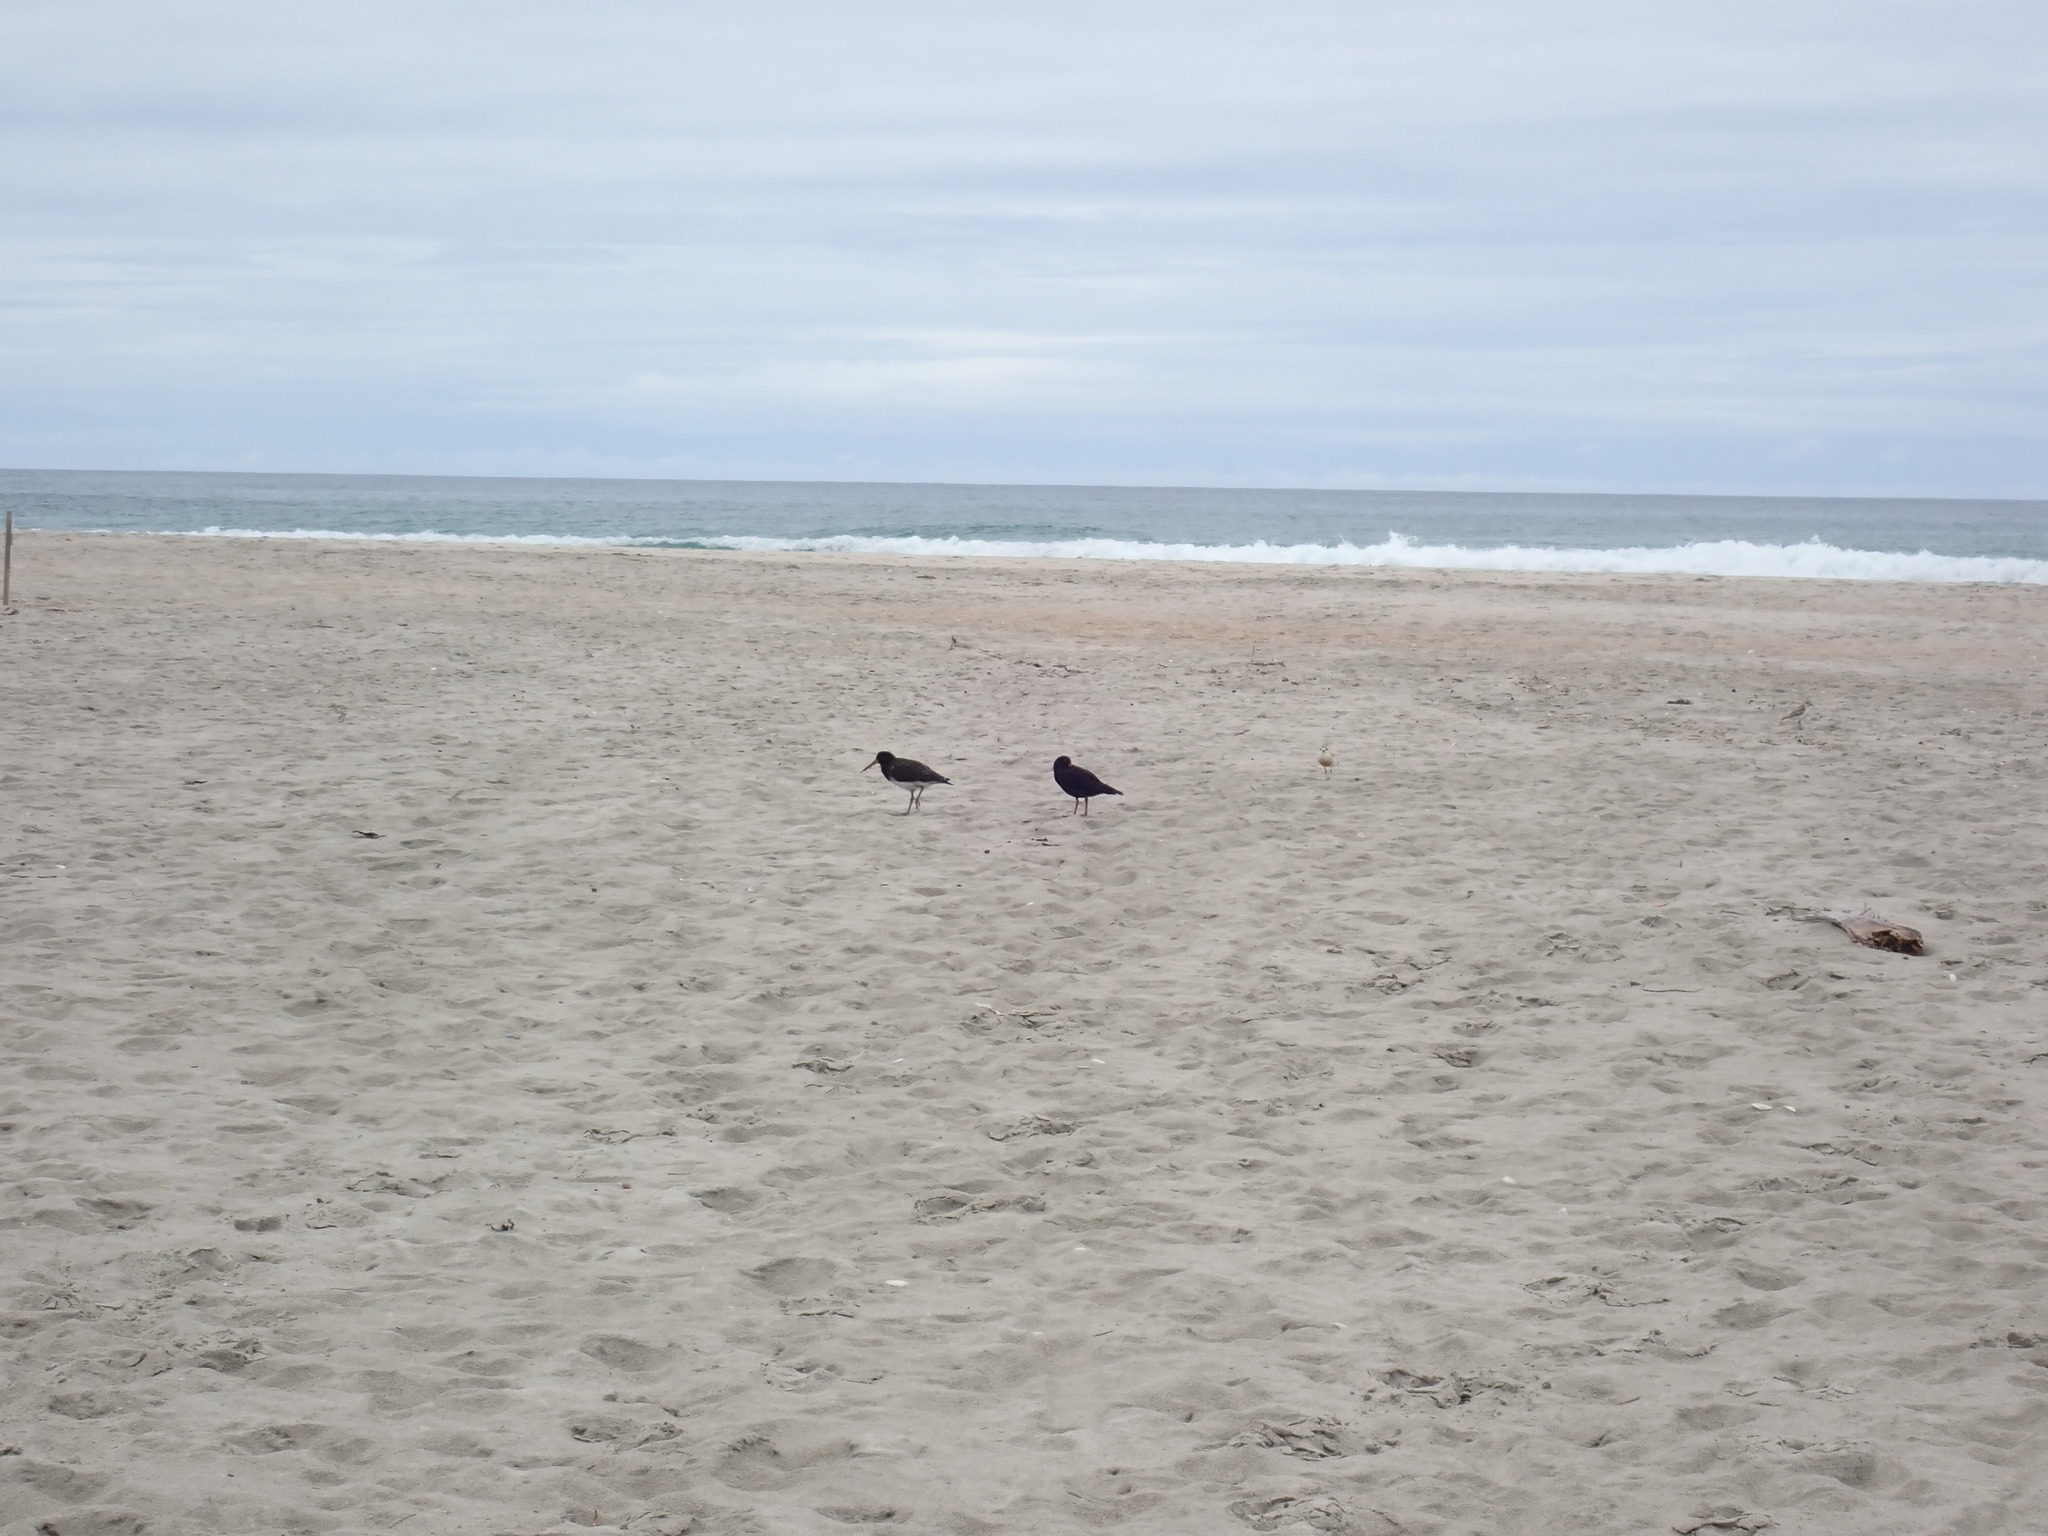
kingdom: Animalia
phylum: Chordata
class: Aves
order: Charadriiformes
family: Haematopodidae
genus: Haematopus
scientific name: Haematopus unicolor
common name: Variable oystercatcher
